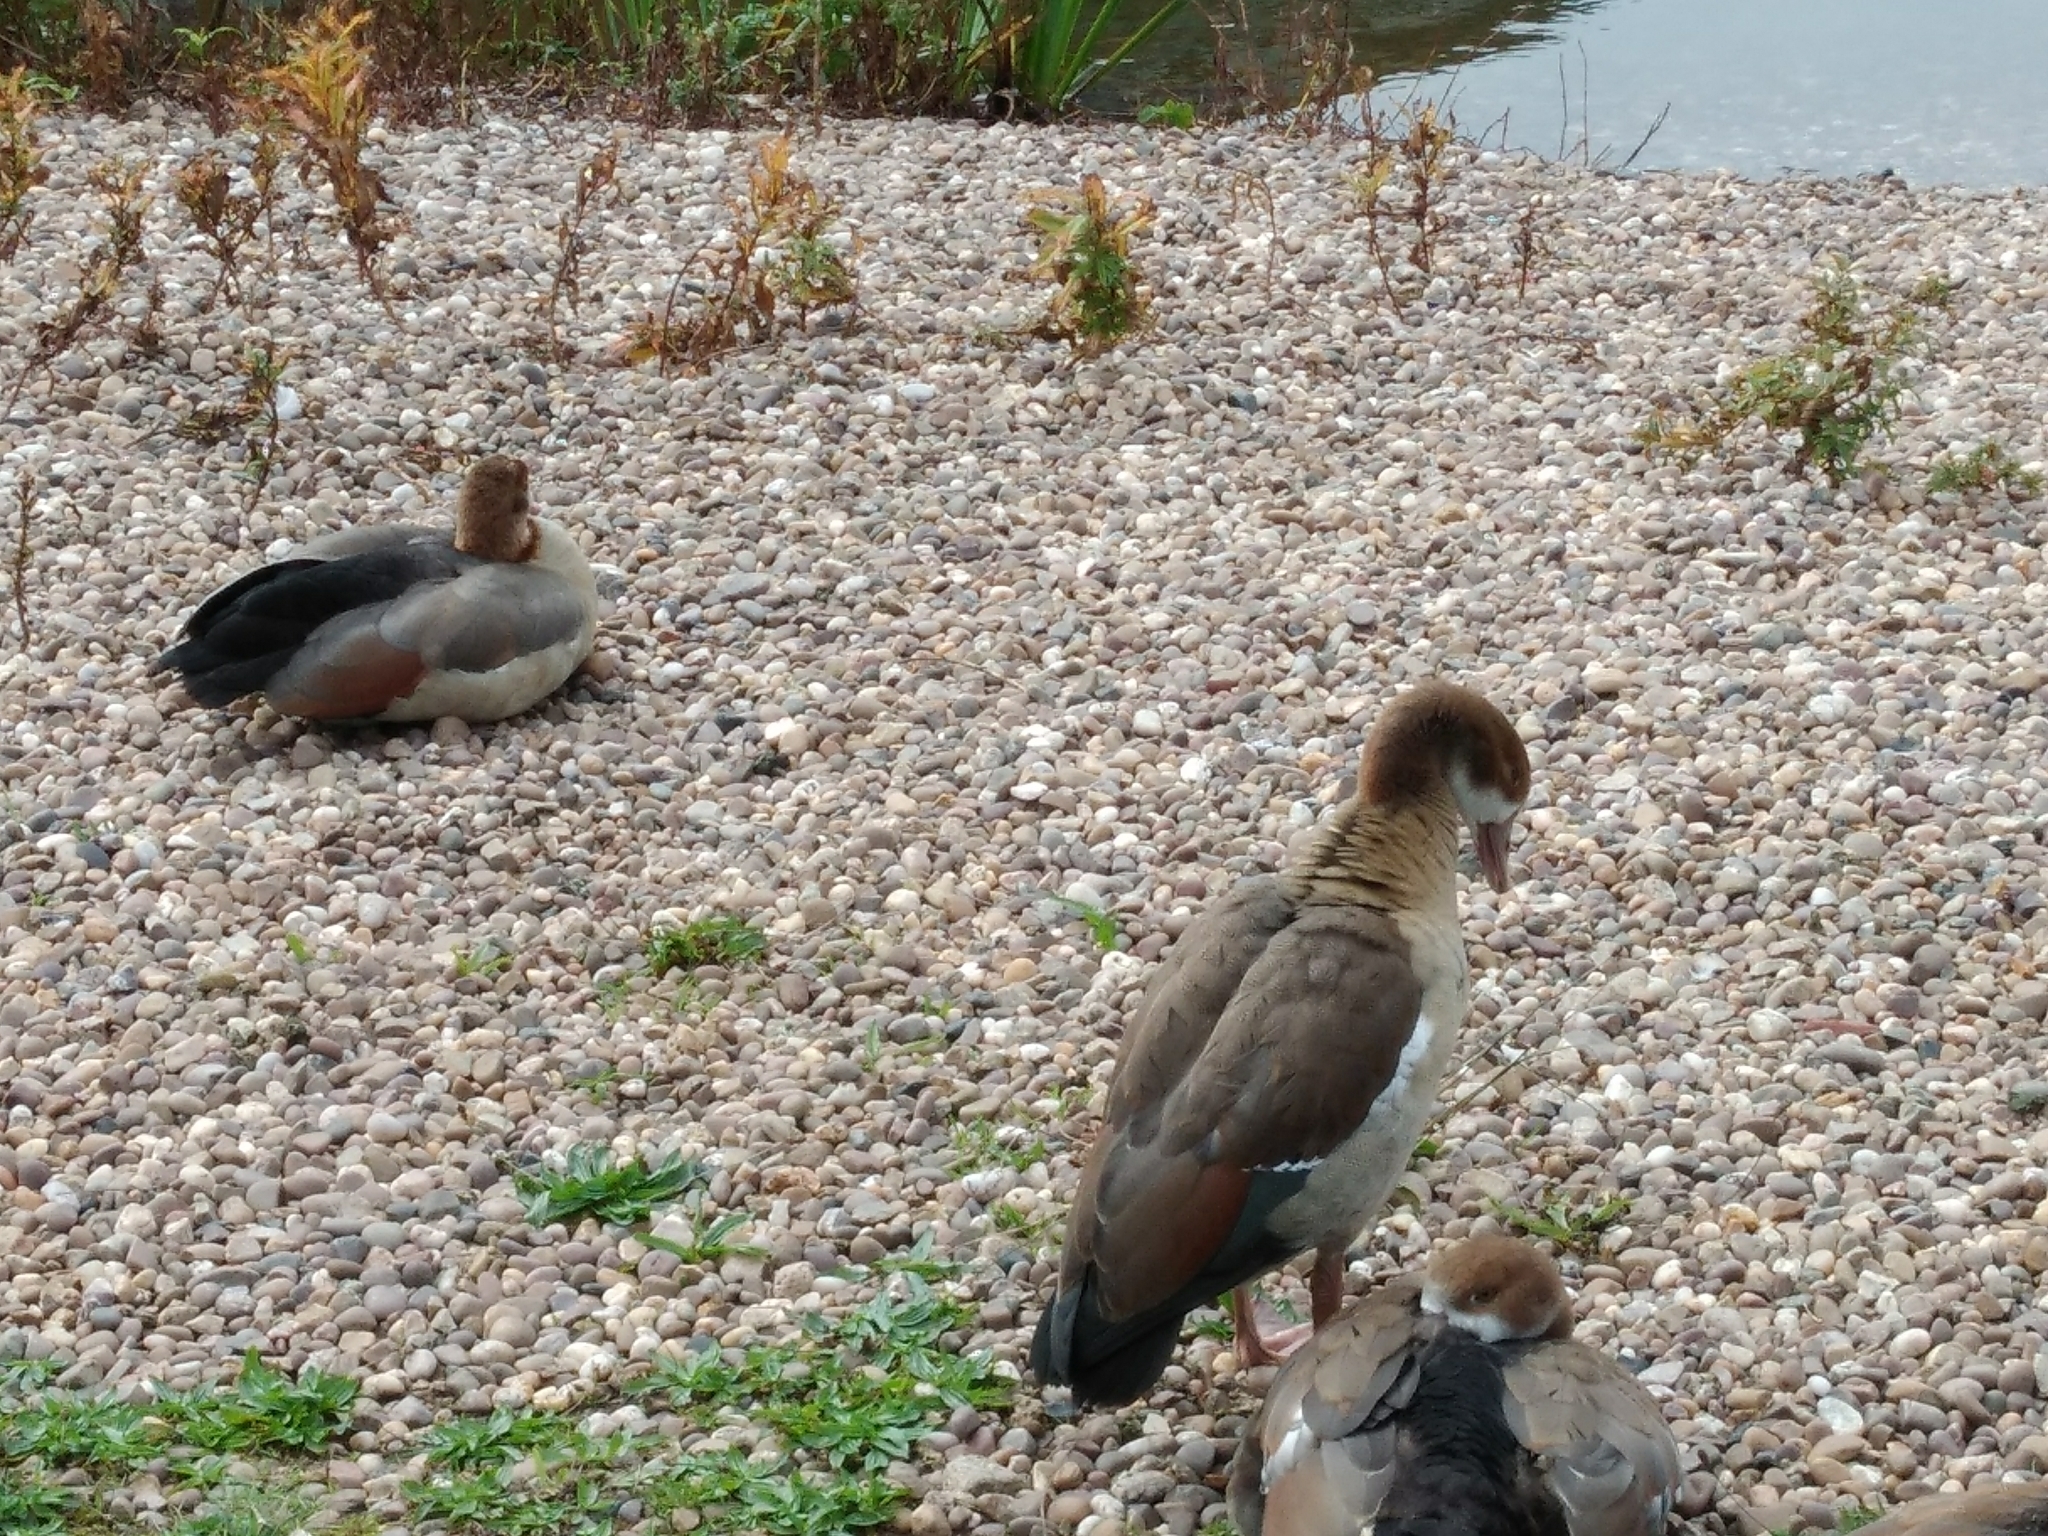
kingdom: Animalia
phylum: Chordata
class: Aves
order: Anseriformes
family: Anatidae
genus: Alopochen
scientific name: Alopochen aegyptiaca
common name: Egyptian goose
